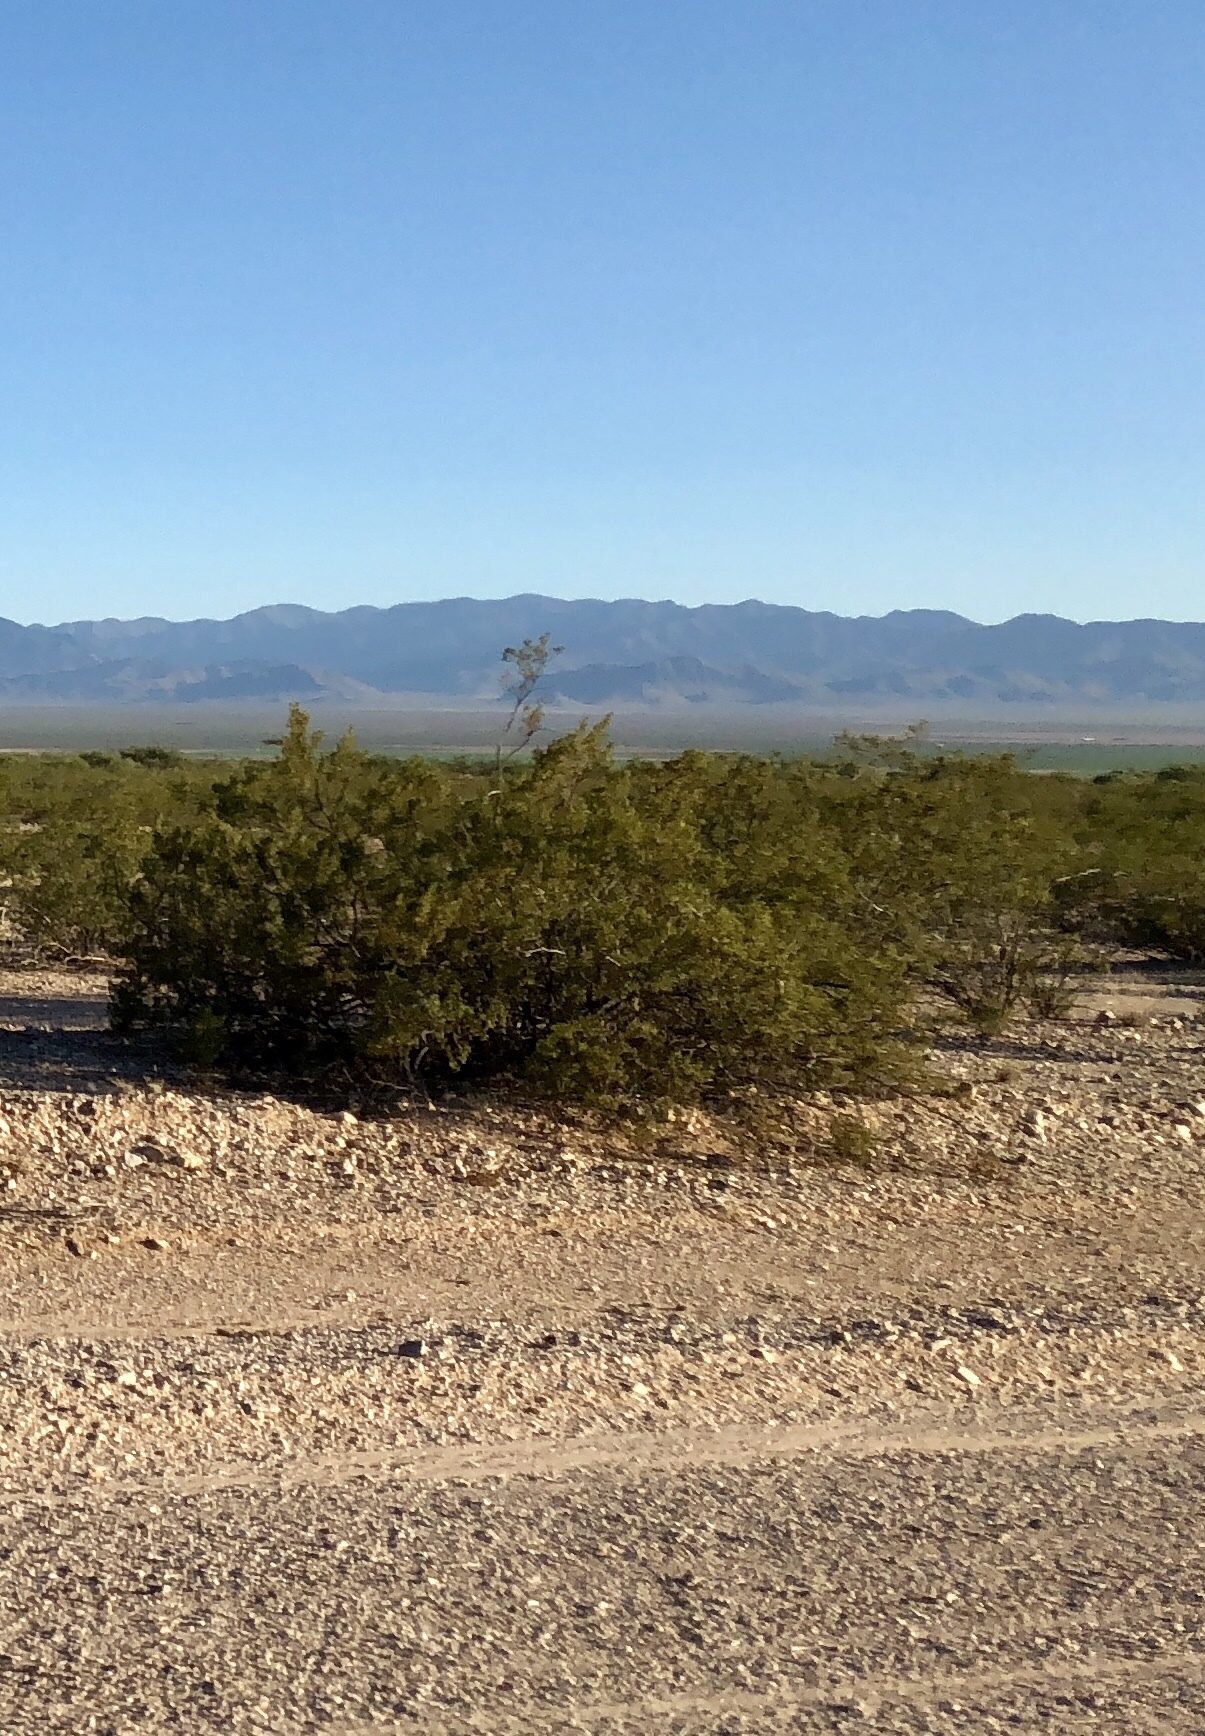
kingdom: Plantae
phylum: Tracheophyta
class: Magnoliopsida
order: Zygophyllales
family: Zygophyllaceae
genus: Larrea
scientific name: Larrea tridentata
